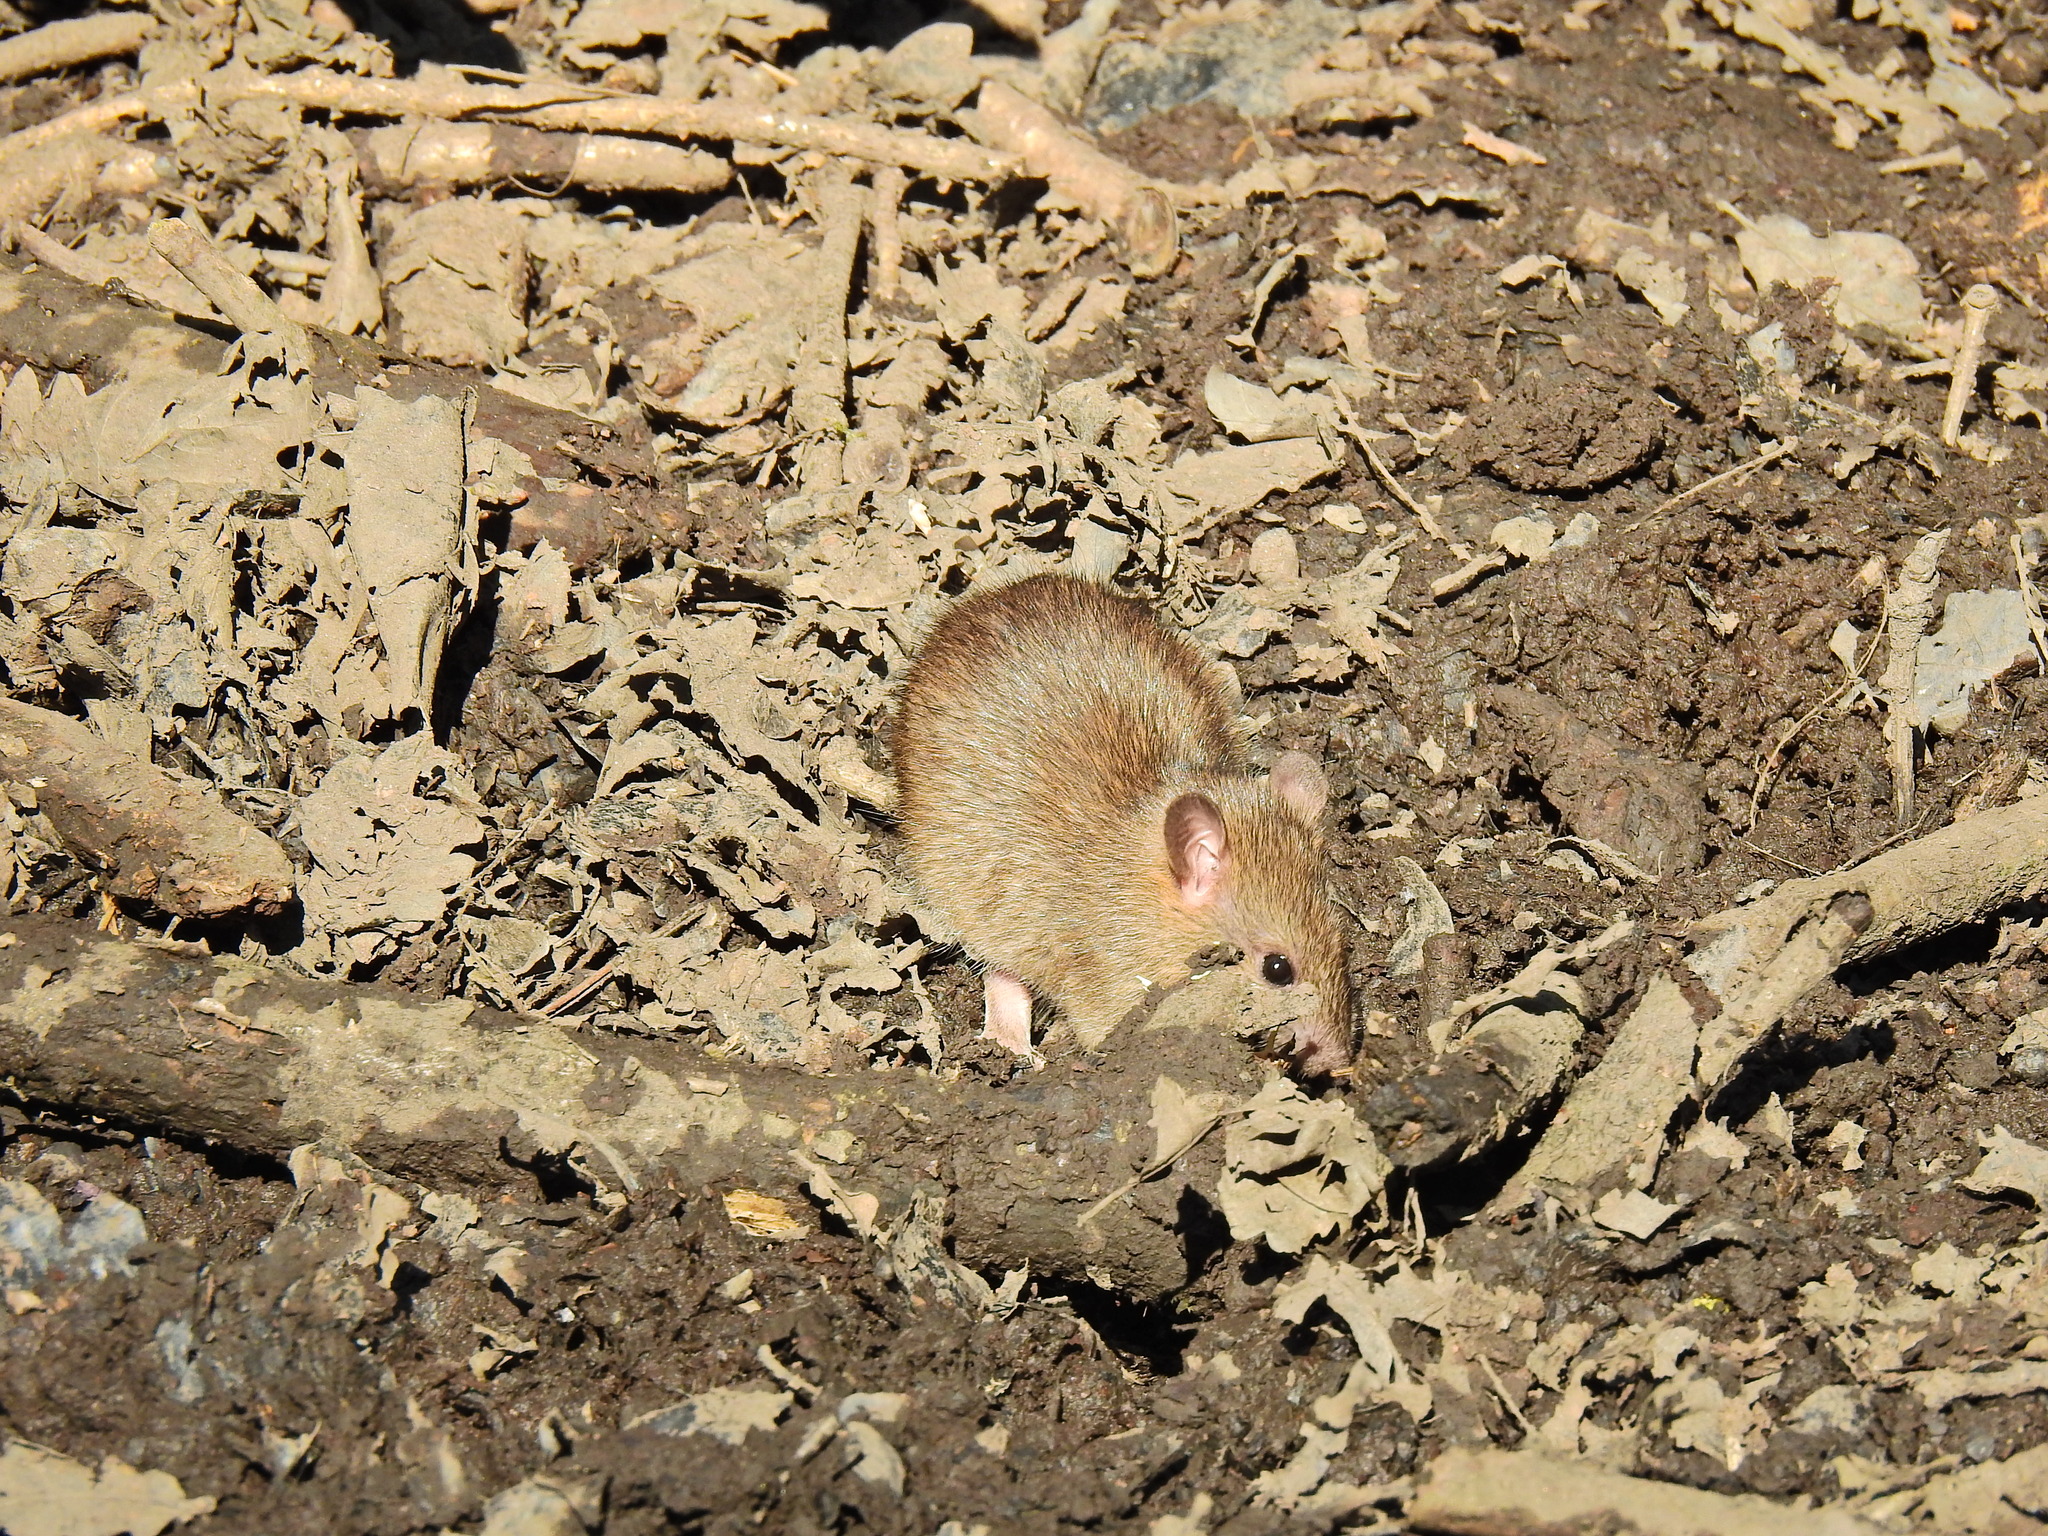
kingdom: Animalia
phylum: Chordata
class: Mammalia
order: Rodentia
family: Muridae
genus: Rattus
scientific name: Rattus norvegicus
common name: Brown rat
